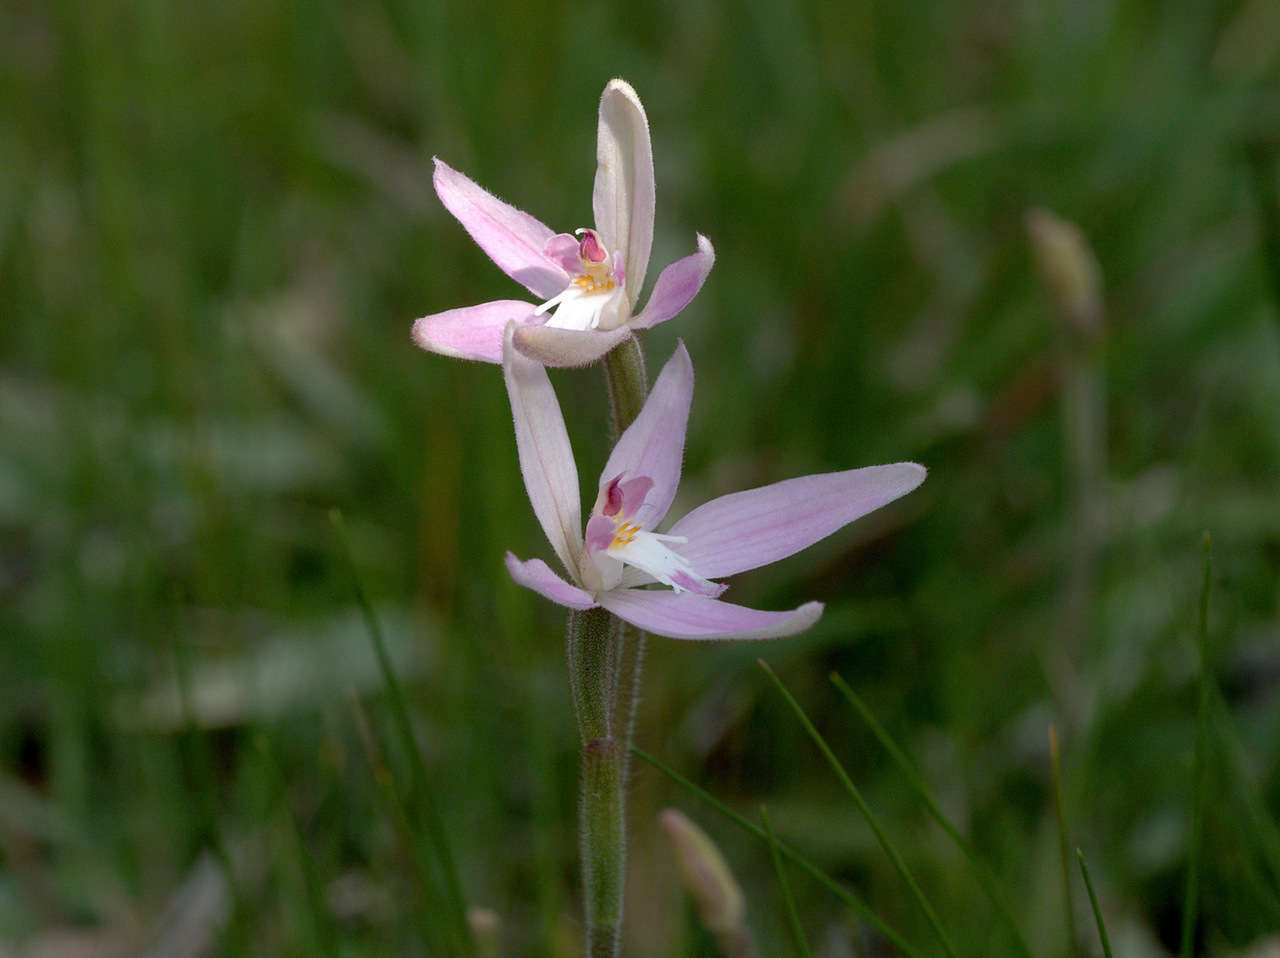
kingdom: Plantae
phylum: Tracheophyta
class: Liliopsida
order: Asparagales
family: Orchidaceae
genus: Caladenia
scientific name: Caladenia latifolia
